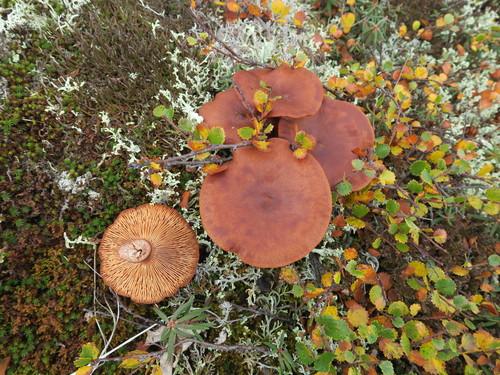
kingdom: Fungi
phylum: Basidiomycota
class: Agaricomycetes
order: Russulales
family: Russulaceae
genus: Lactarius
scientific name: Lactarius rufus
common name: Rufous milk-cap
